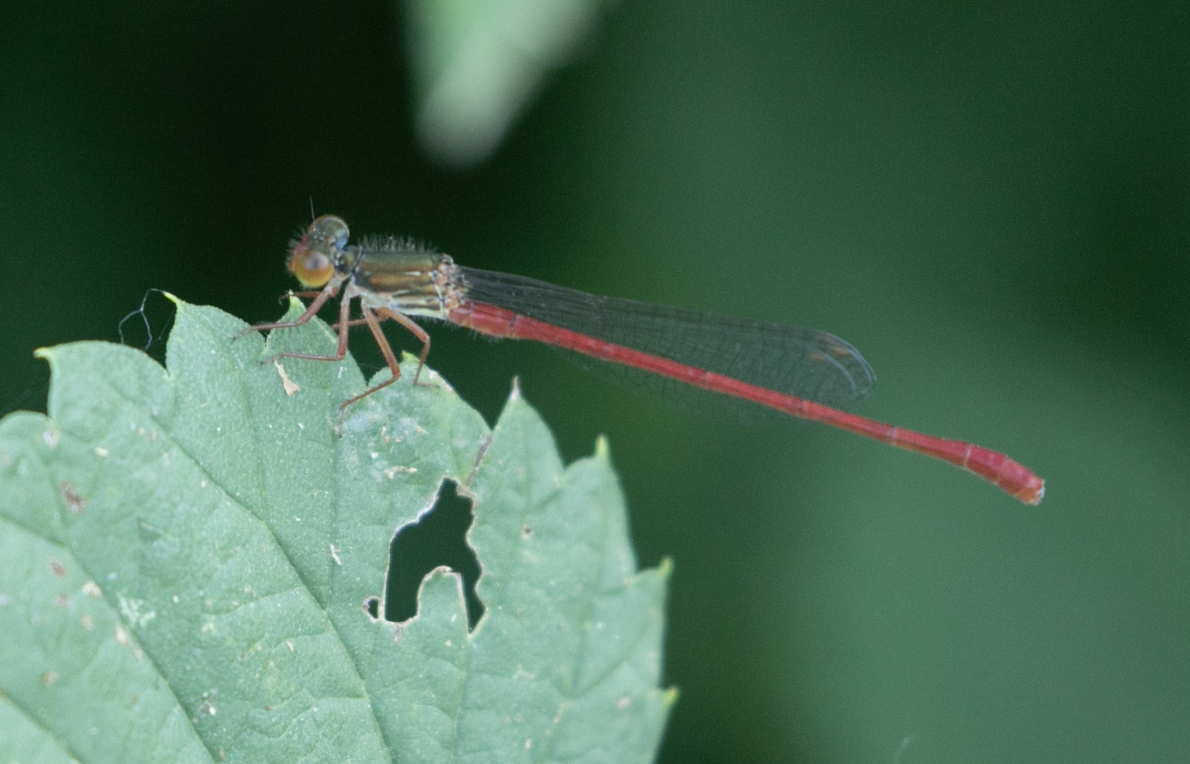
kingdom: Animalia
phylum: Arthropoda
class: Insecta
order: Odonata
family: Coenagrionidae
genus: Ceriagrion
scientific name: Ceriagrion tenellum
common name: Small red damselfly
